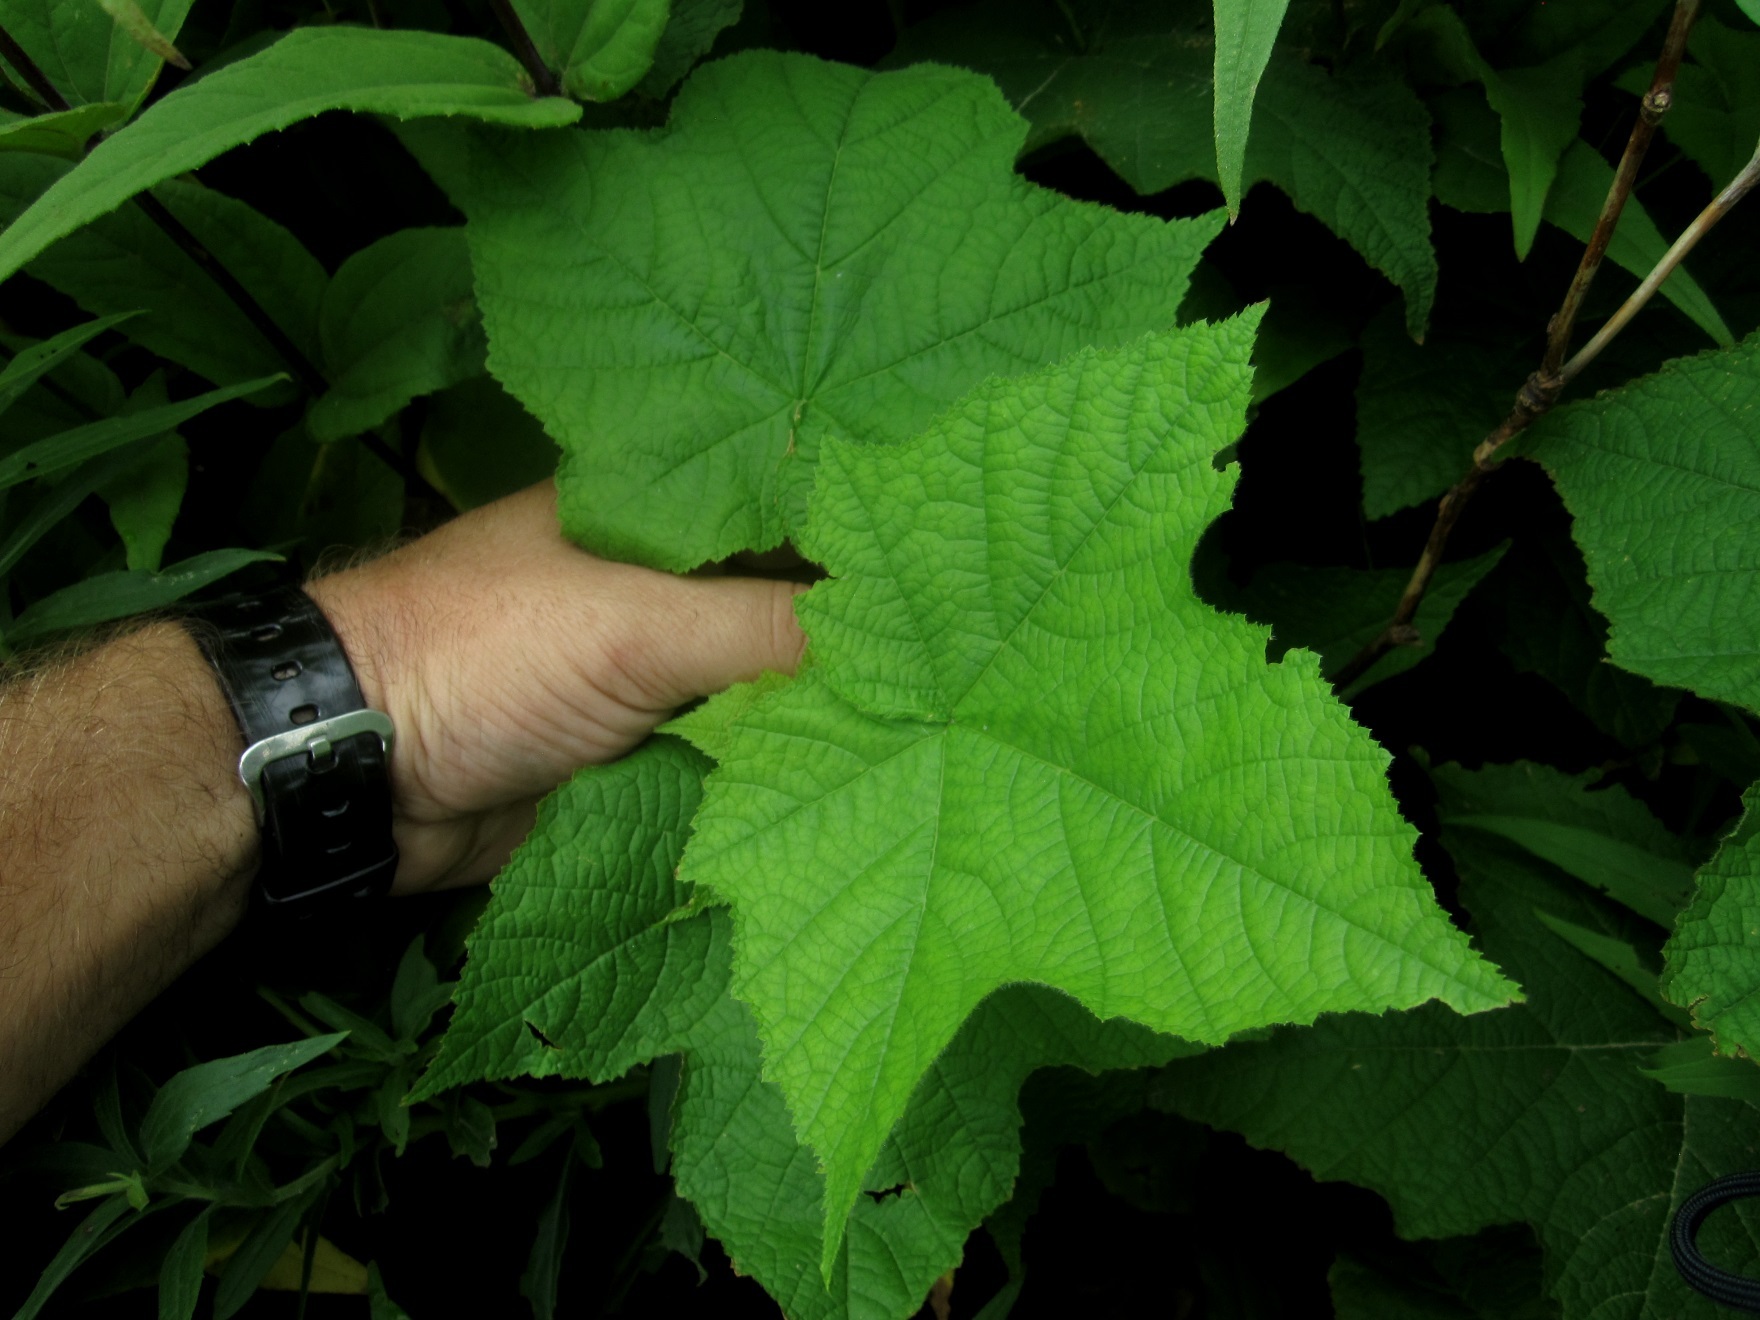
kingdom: Plantae
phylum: Tracheophyta
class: Magnoliopsida
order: Rosales
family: Rosaceae
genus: Rubus
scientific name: Rubus odoratus
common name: Purple-flowered raspberry
